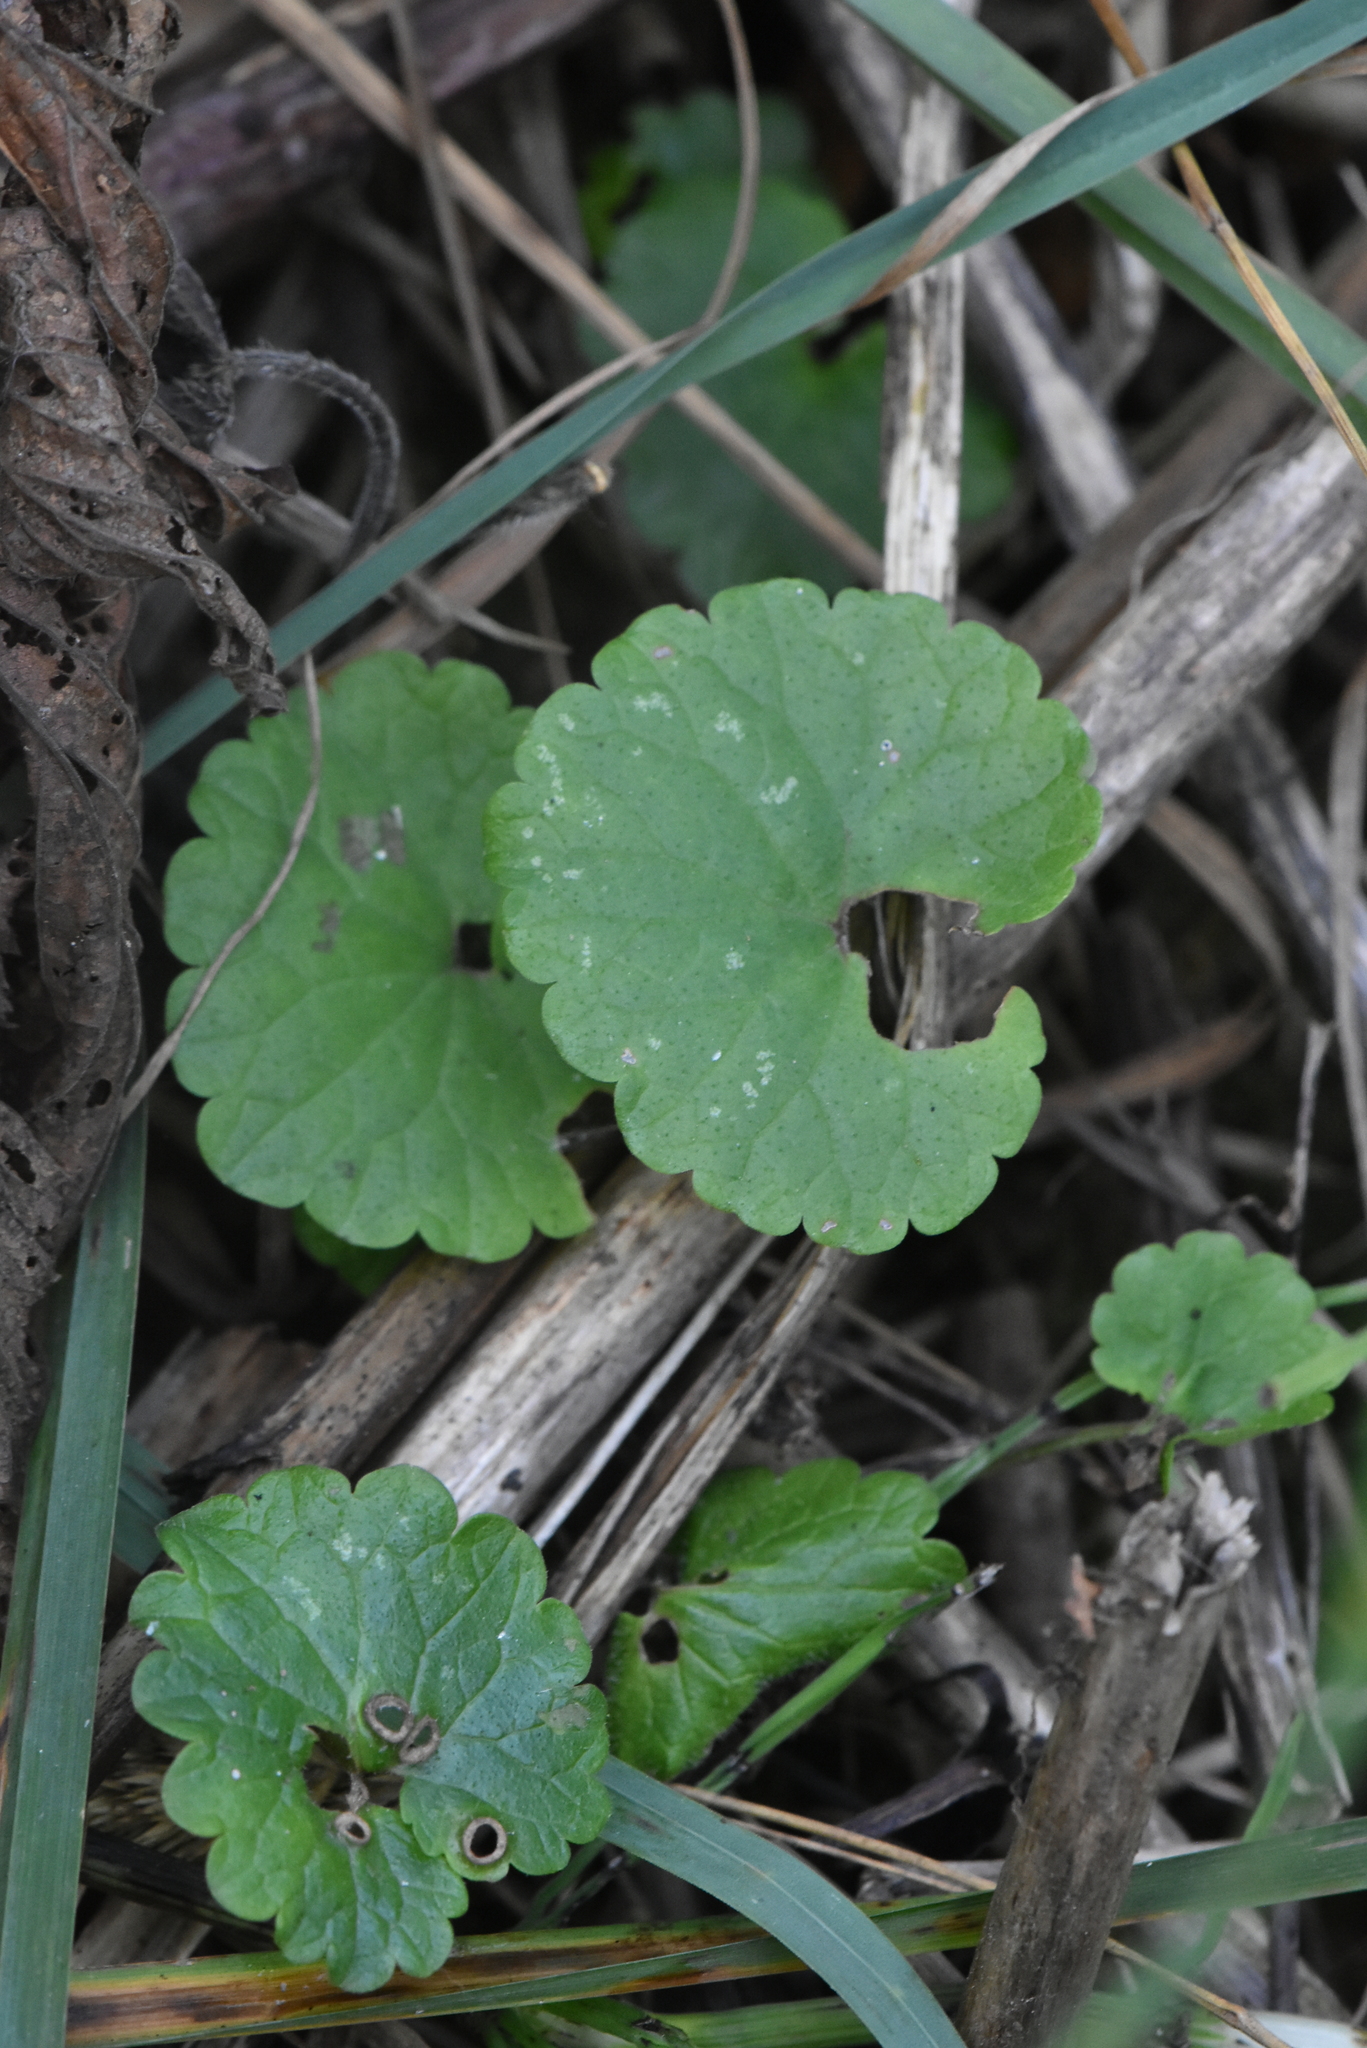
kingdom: Plantae
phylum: Tracheophyta
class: Magnoliopsida
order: Lamiales
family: Lamiaceae
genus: Glechoma
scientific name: Glechoma hederacea
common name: Ground ivy
